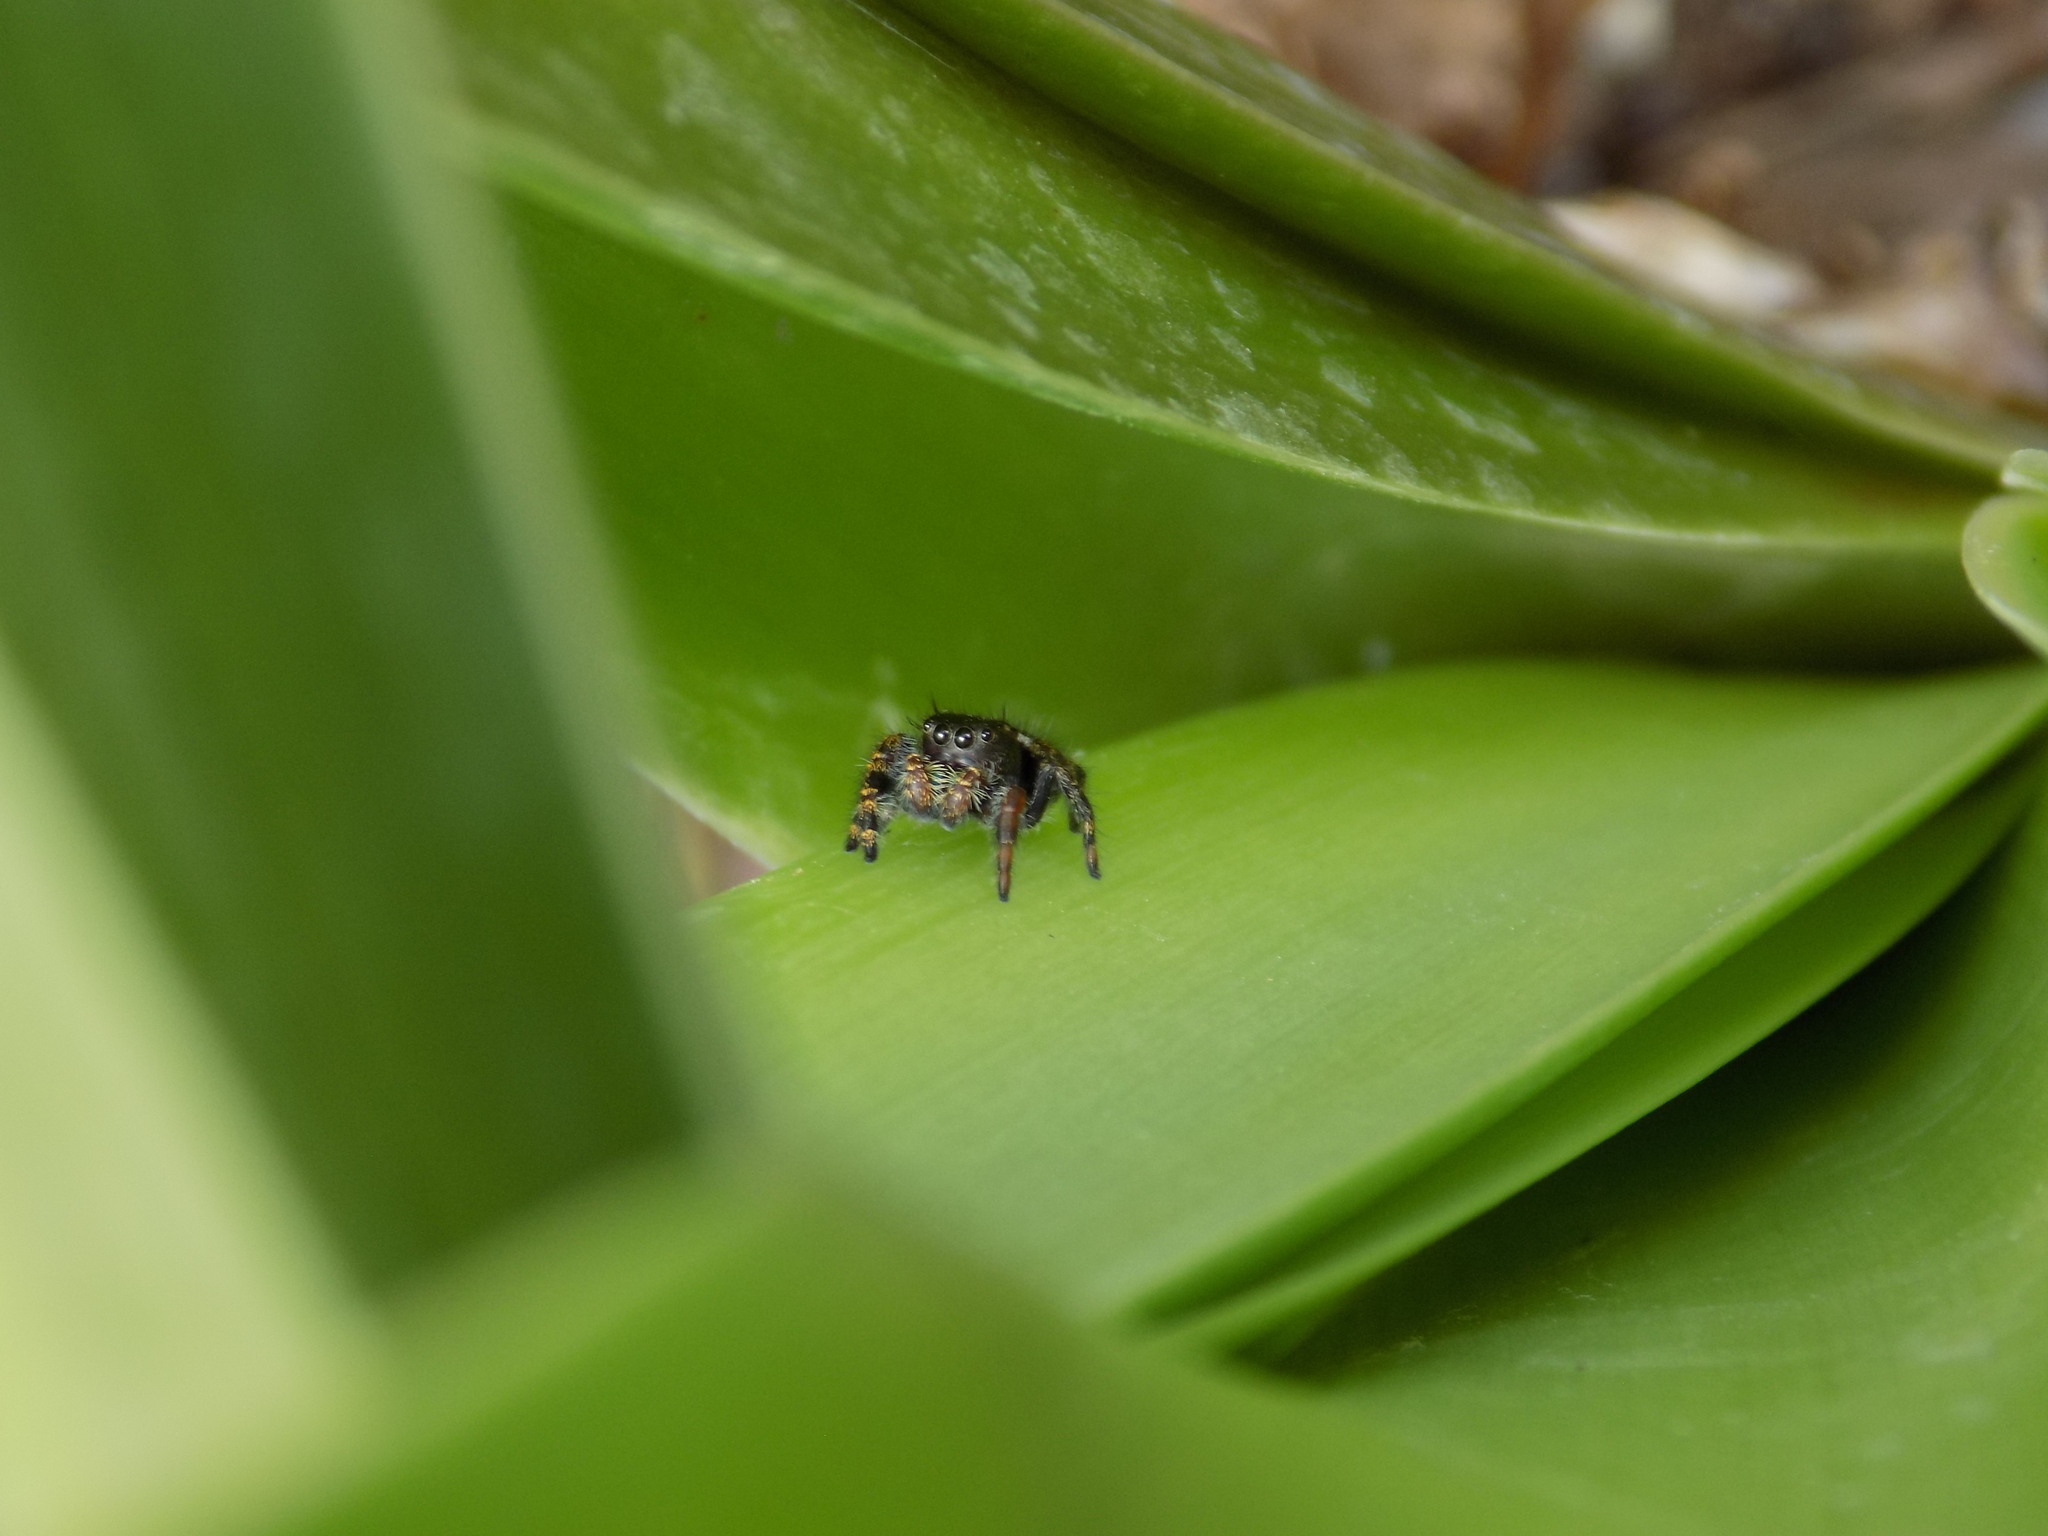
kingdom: Animalia
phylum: Arthropoda
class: Arachnida
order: Araneae
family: Salticidae
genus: Phidippus
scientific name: Phidippus audax
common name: Bold jumper
